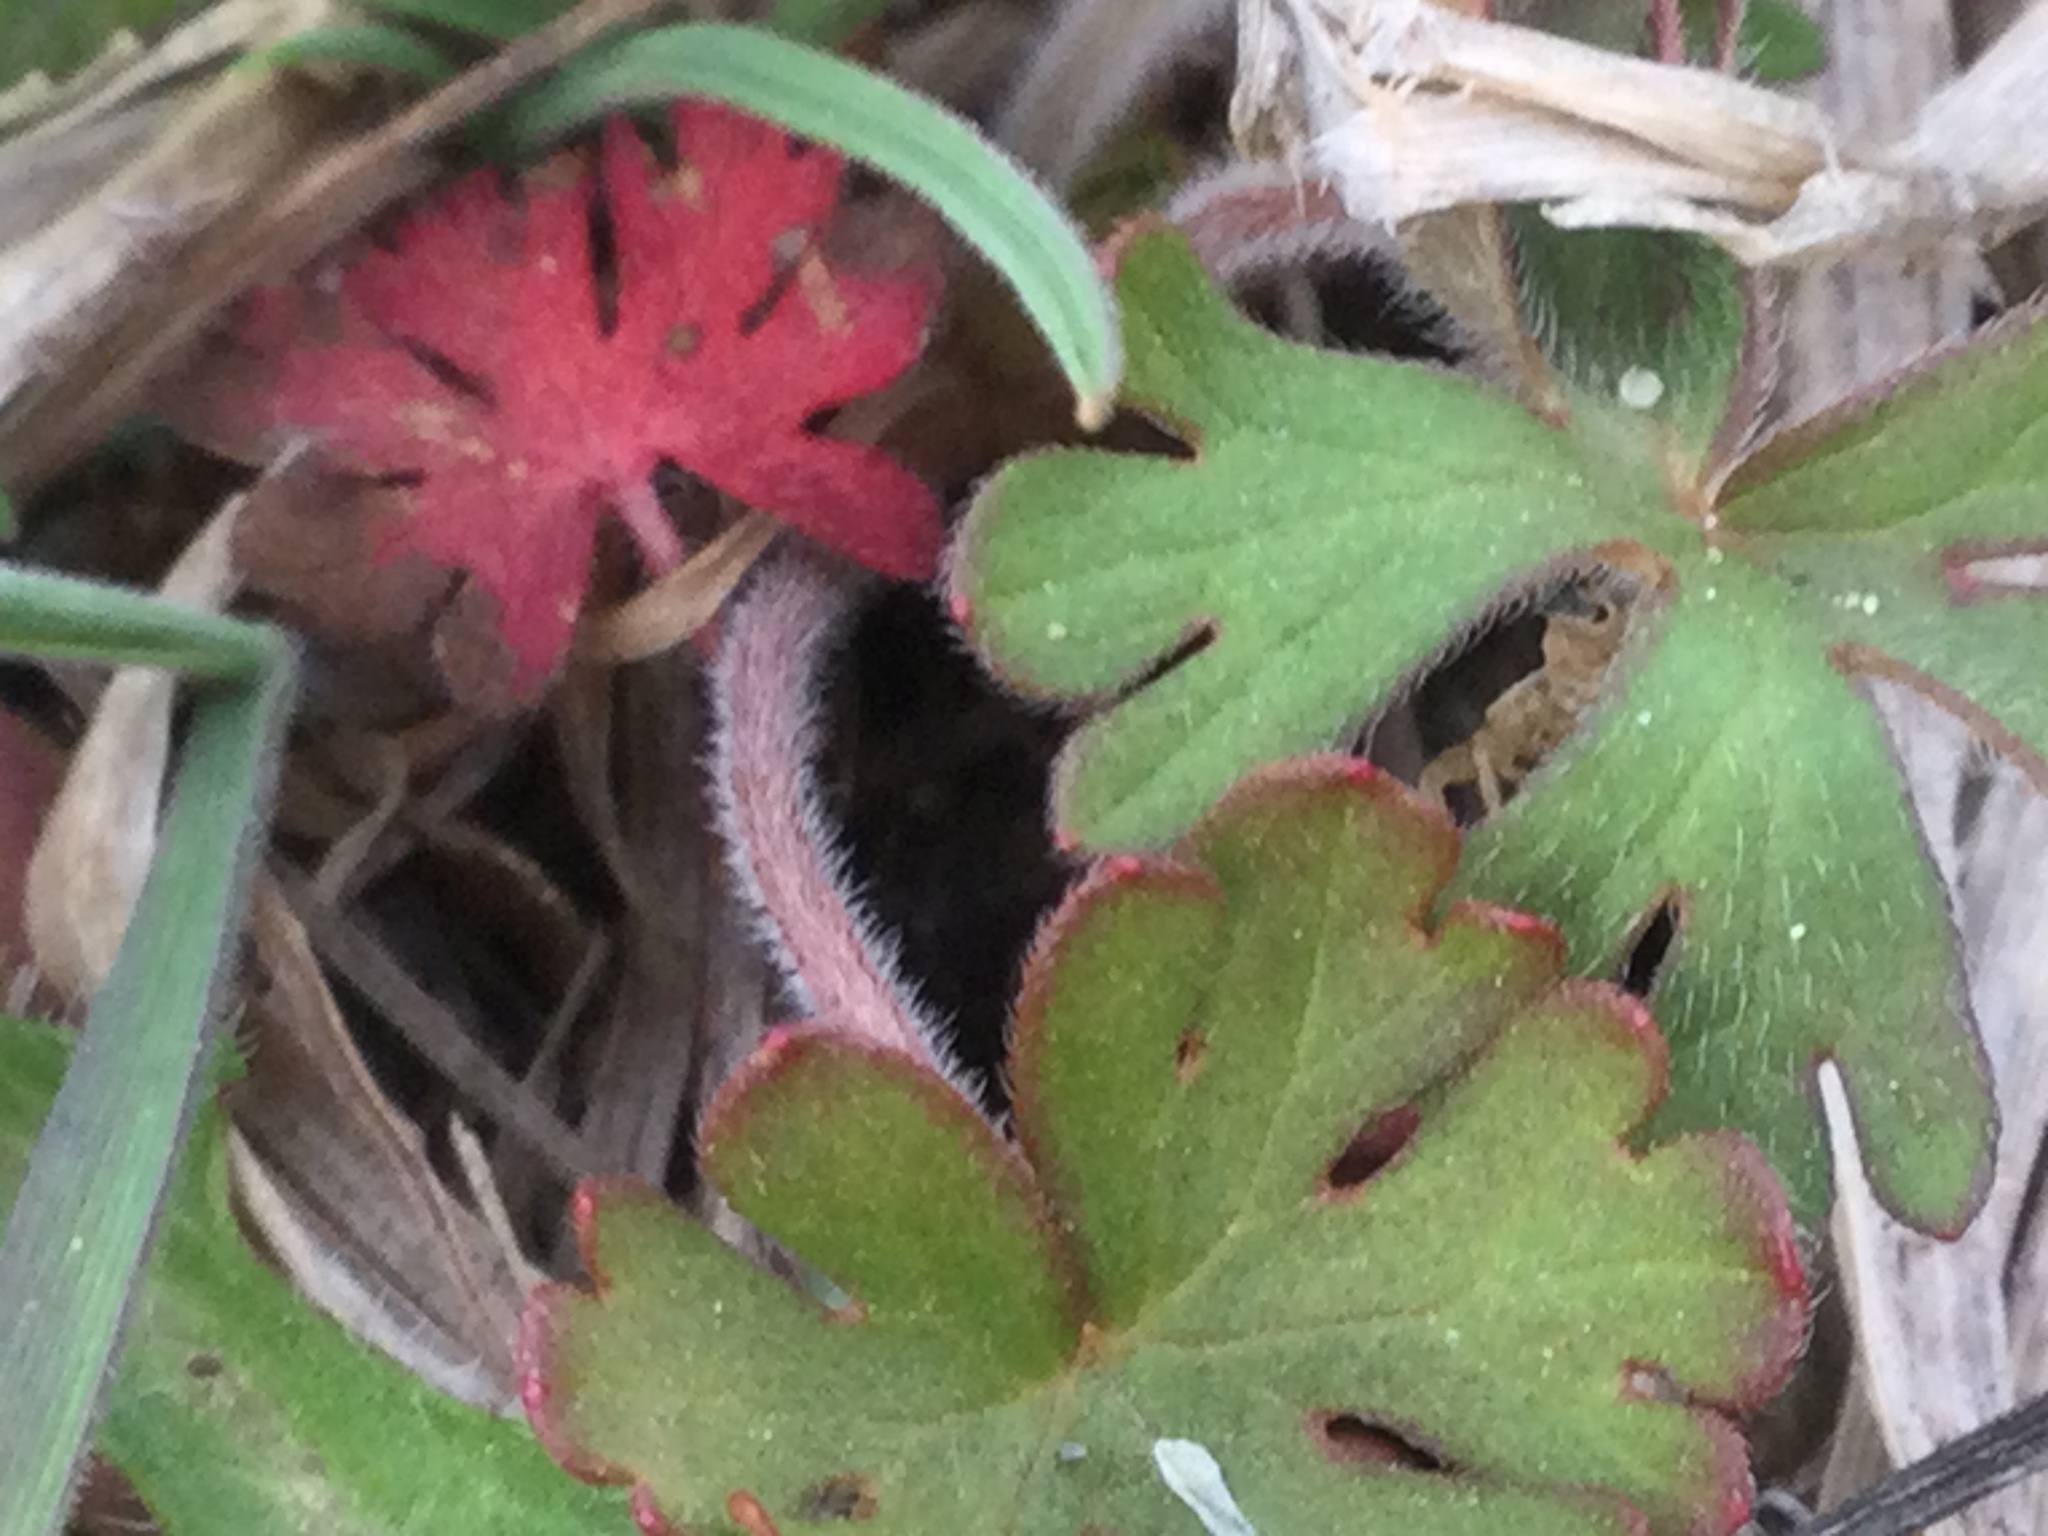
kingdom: Plantae
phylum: Tracheophyta
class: Magnoliopsida
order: Geraniales
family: Geraniaceae
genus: Geranium
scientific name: Geranium carolinianum
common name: Carolina crane's-bill
